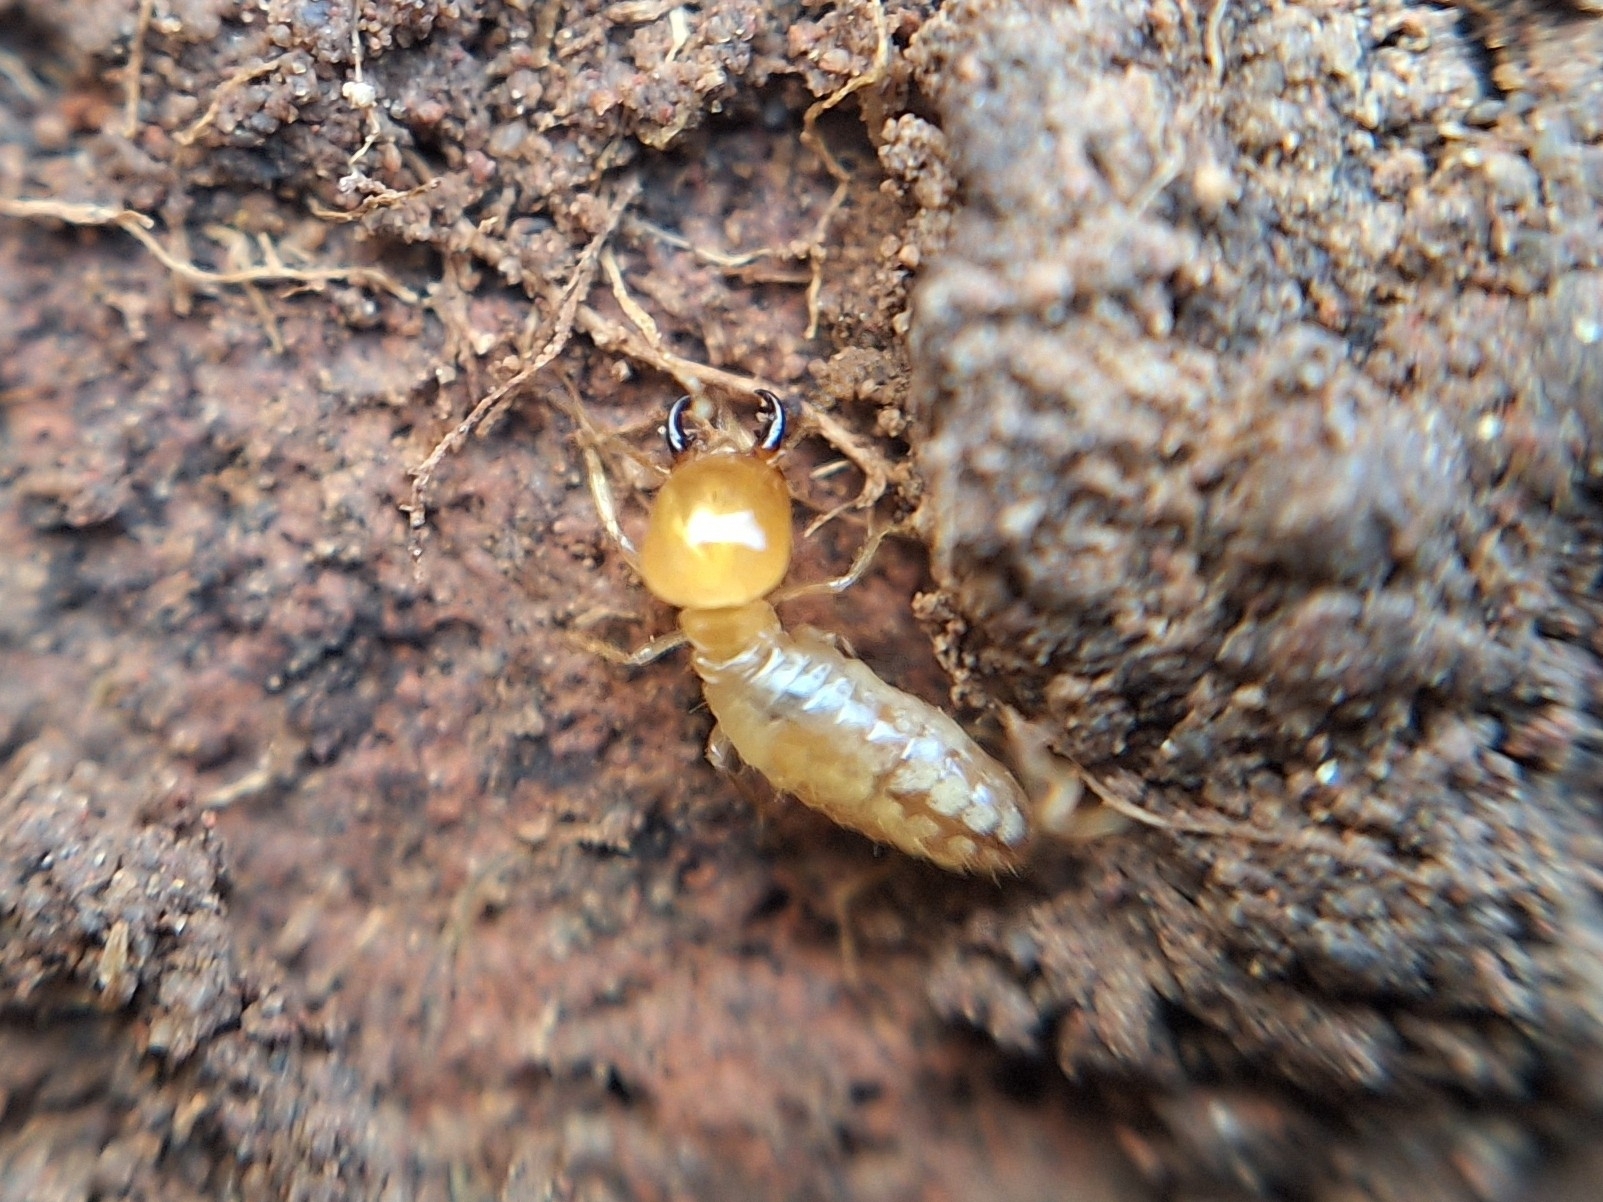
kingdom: Animalia
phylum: Arthropoda
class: Insecta
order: Blattodea
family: Termitidae
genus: Amitermes
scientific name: Amitermes wheeleri
